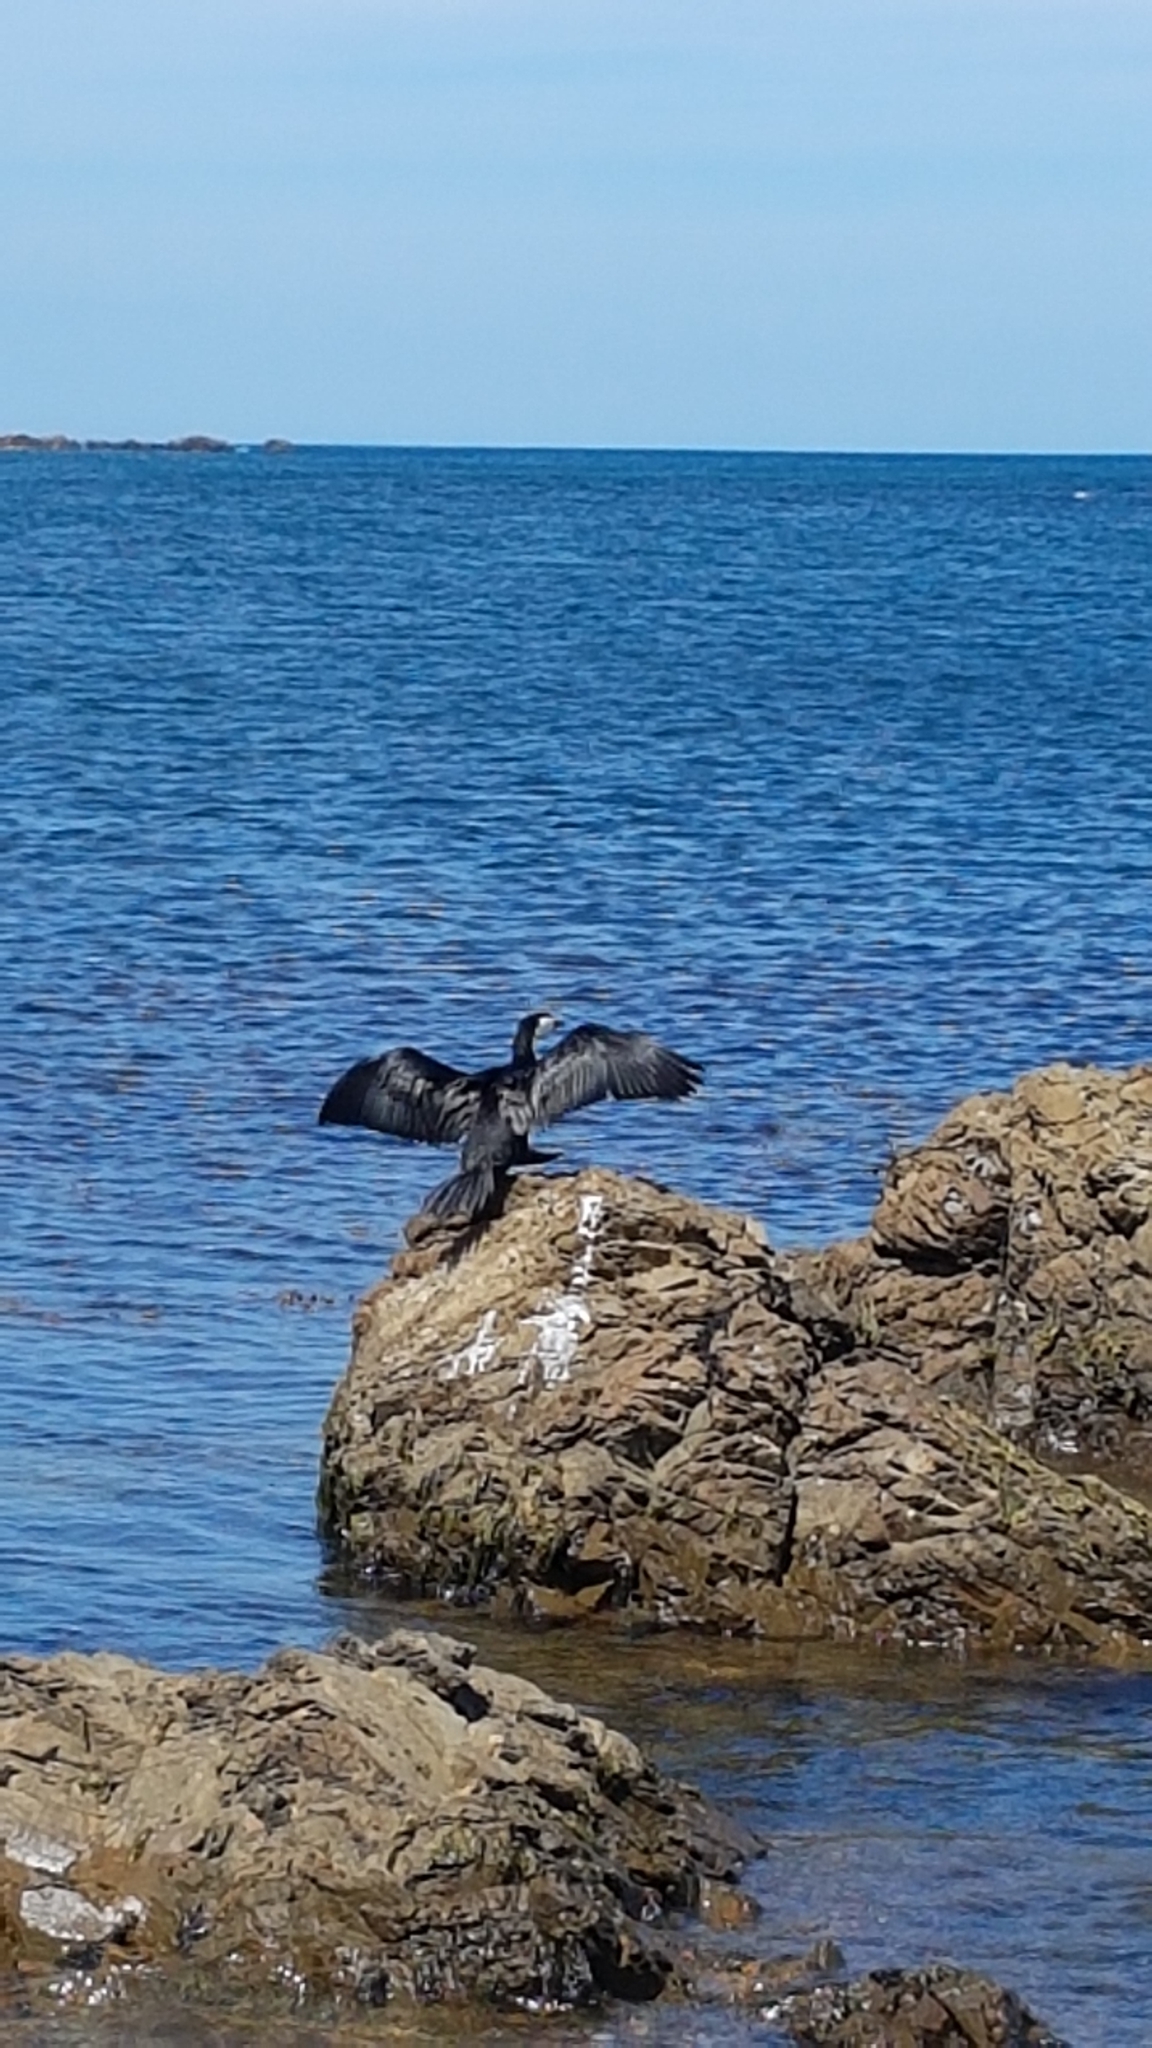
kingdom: Animalia
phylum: Chordata
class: Aves
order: Suliformes
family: Phalacrocoracidae
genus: Microcarbo
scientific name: Microcarbo melanoleucos
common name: Little pied cormorant
